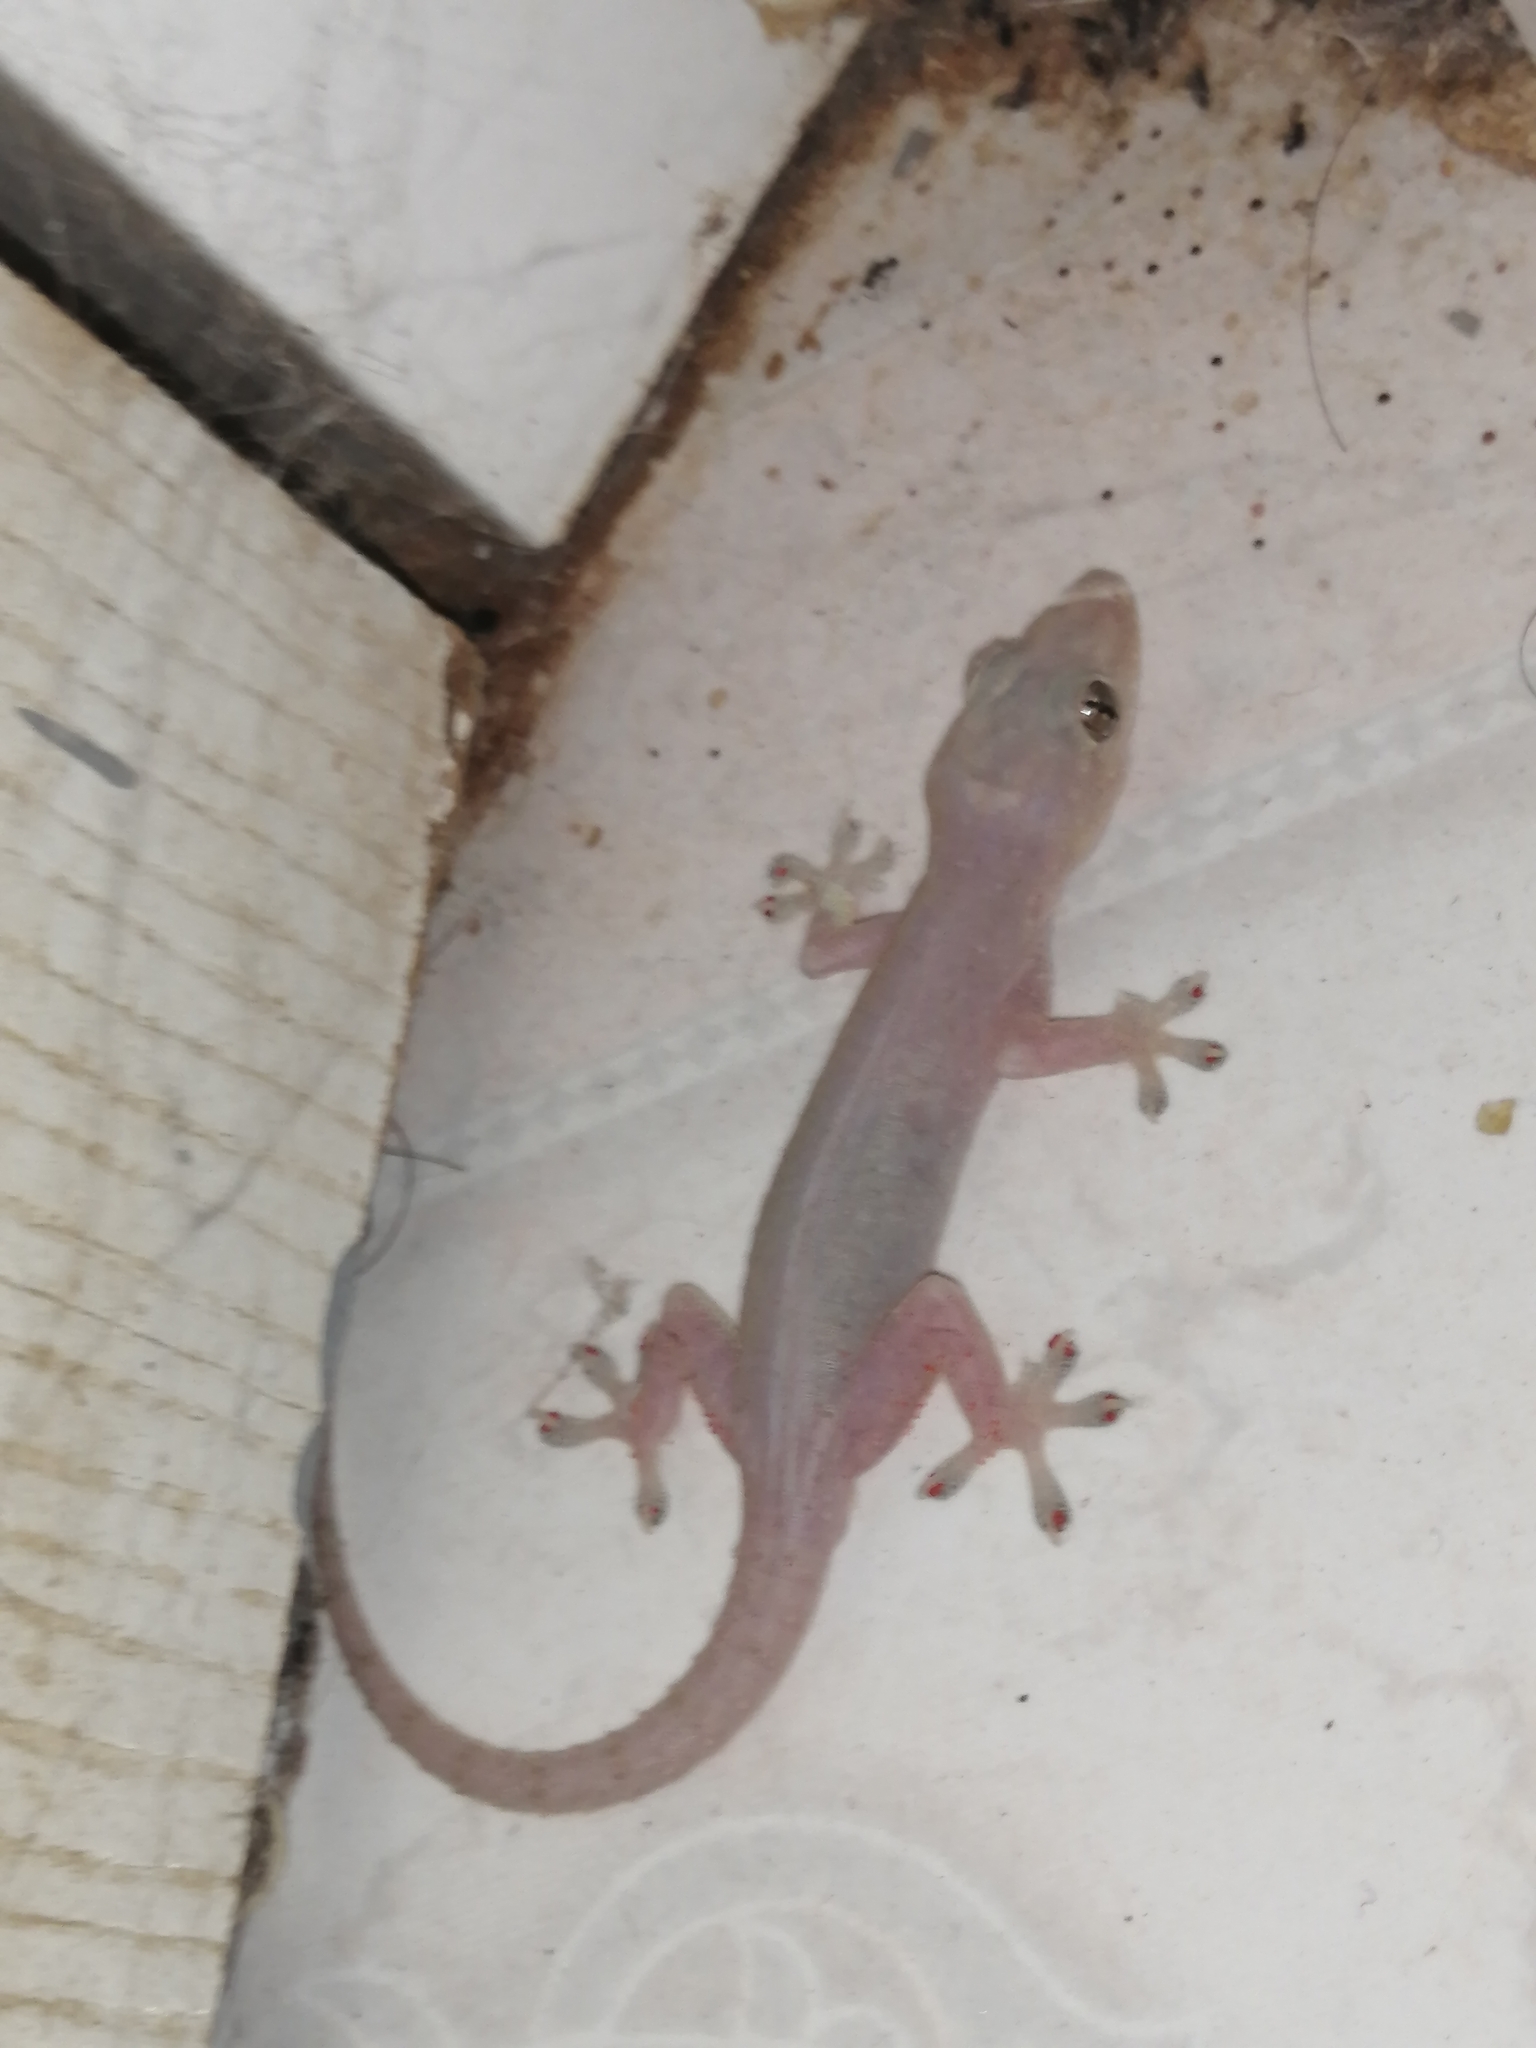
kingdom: Animalia
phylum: Chordata
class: Squamata
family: Gekkonidae
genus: Hemidactylus
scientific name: Hemidactylus frenatus
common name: Common house gecko
